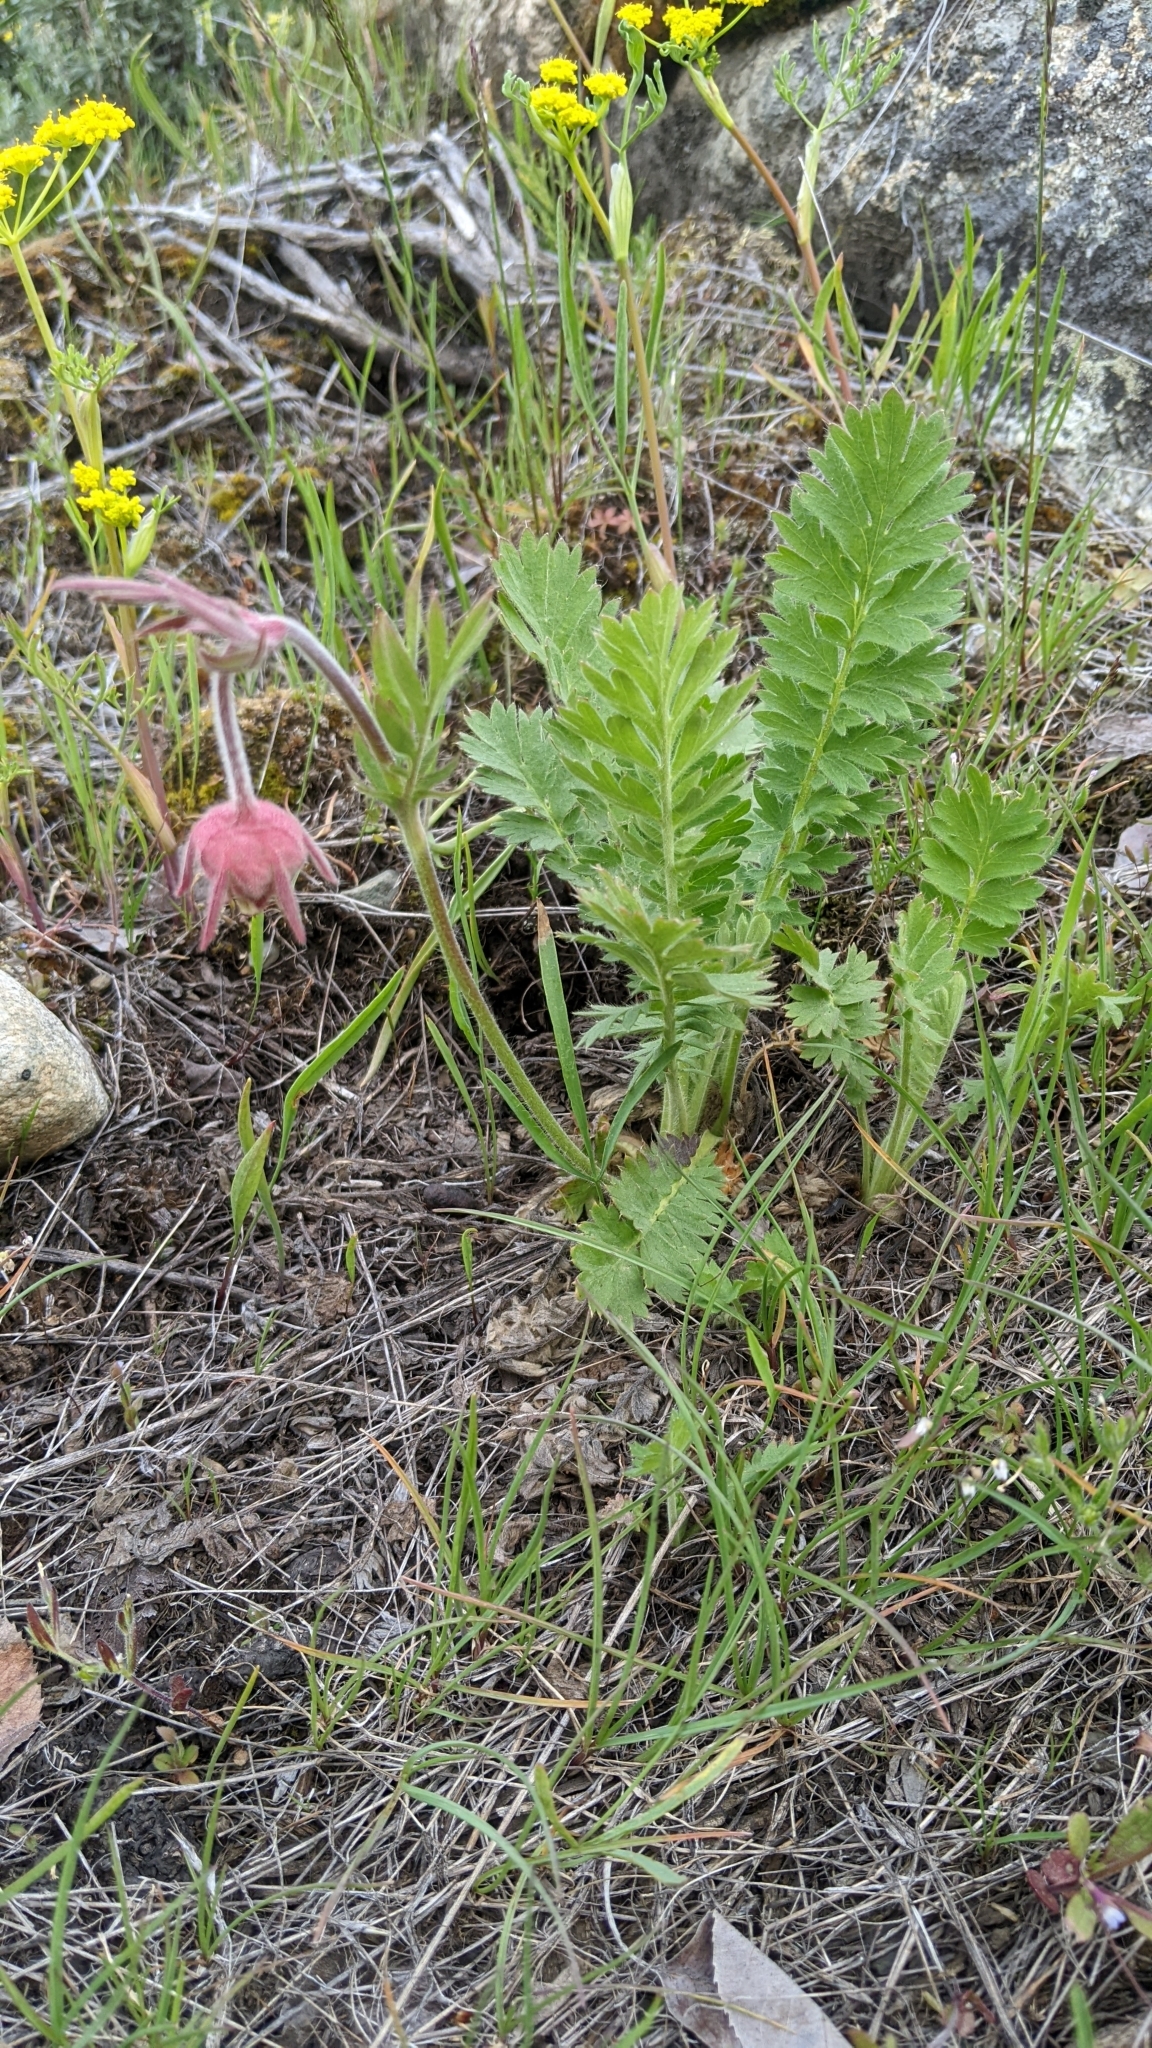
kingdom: Plantae
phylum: Tracheophyta
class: Magnoliopsida
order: Rosales
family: Rosaceae
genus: Geum
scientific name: Geum triflorum
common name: Old man's whiskers
